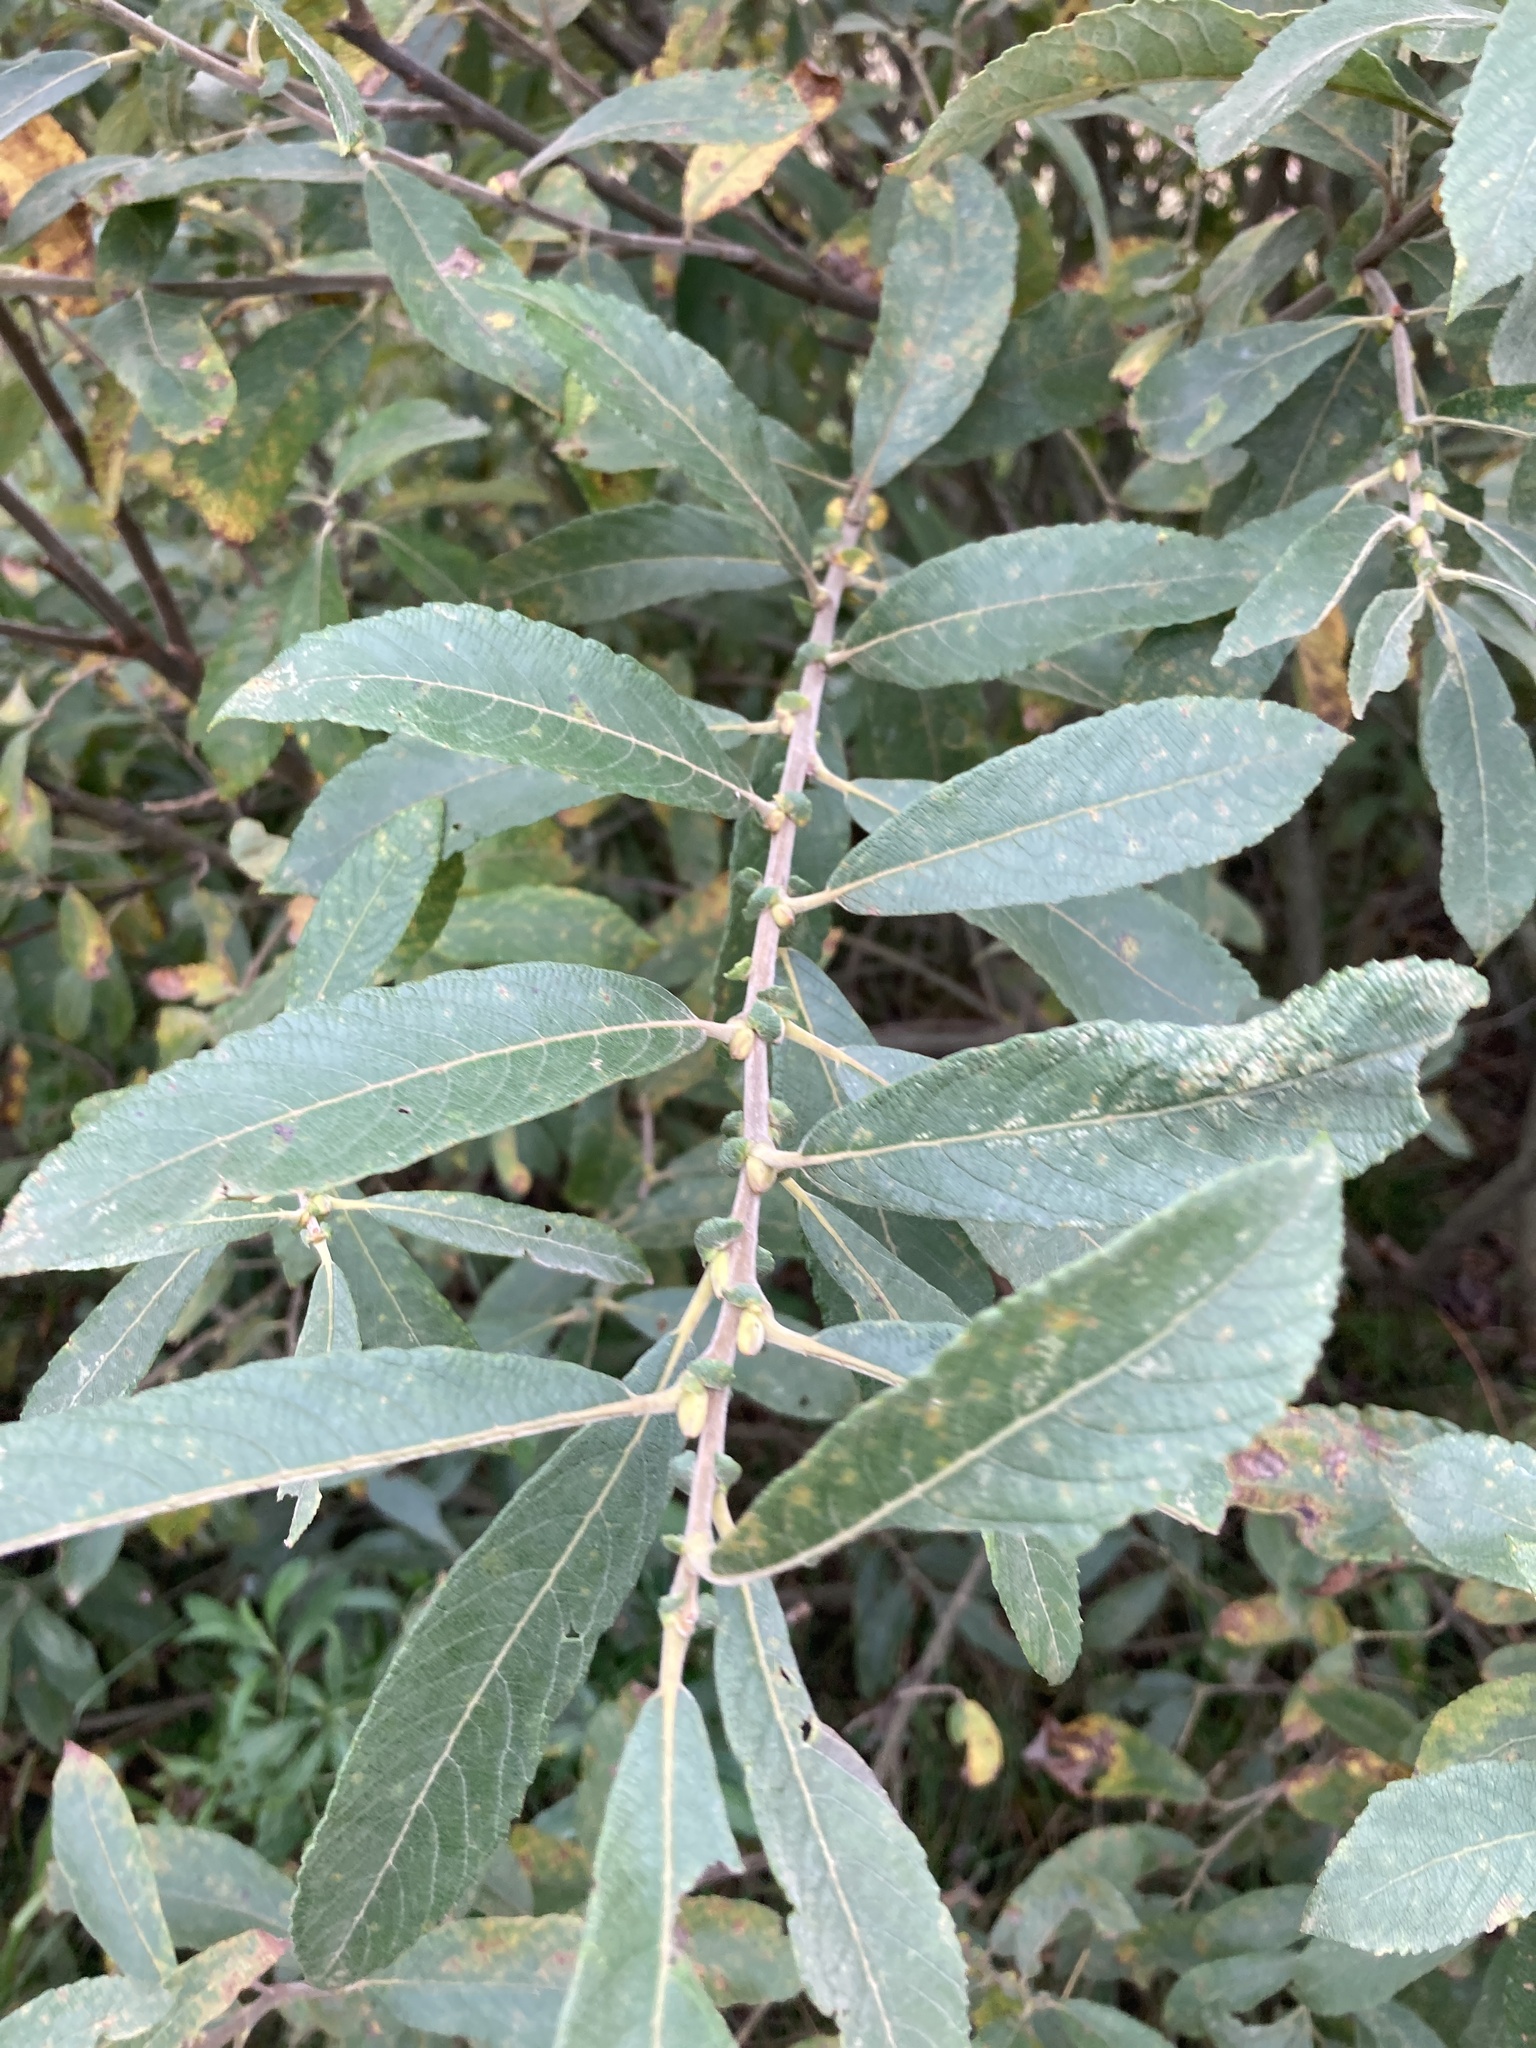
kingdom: Plantae
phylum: Tracheophyta
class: Magnoliopsida
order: Malpighiales
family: Salicaceae
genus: Salix
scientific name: Salix cinerea
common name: Common sallow
